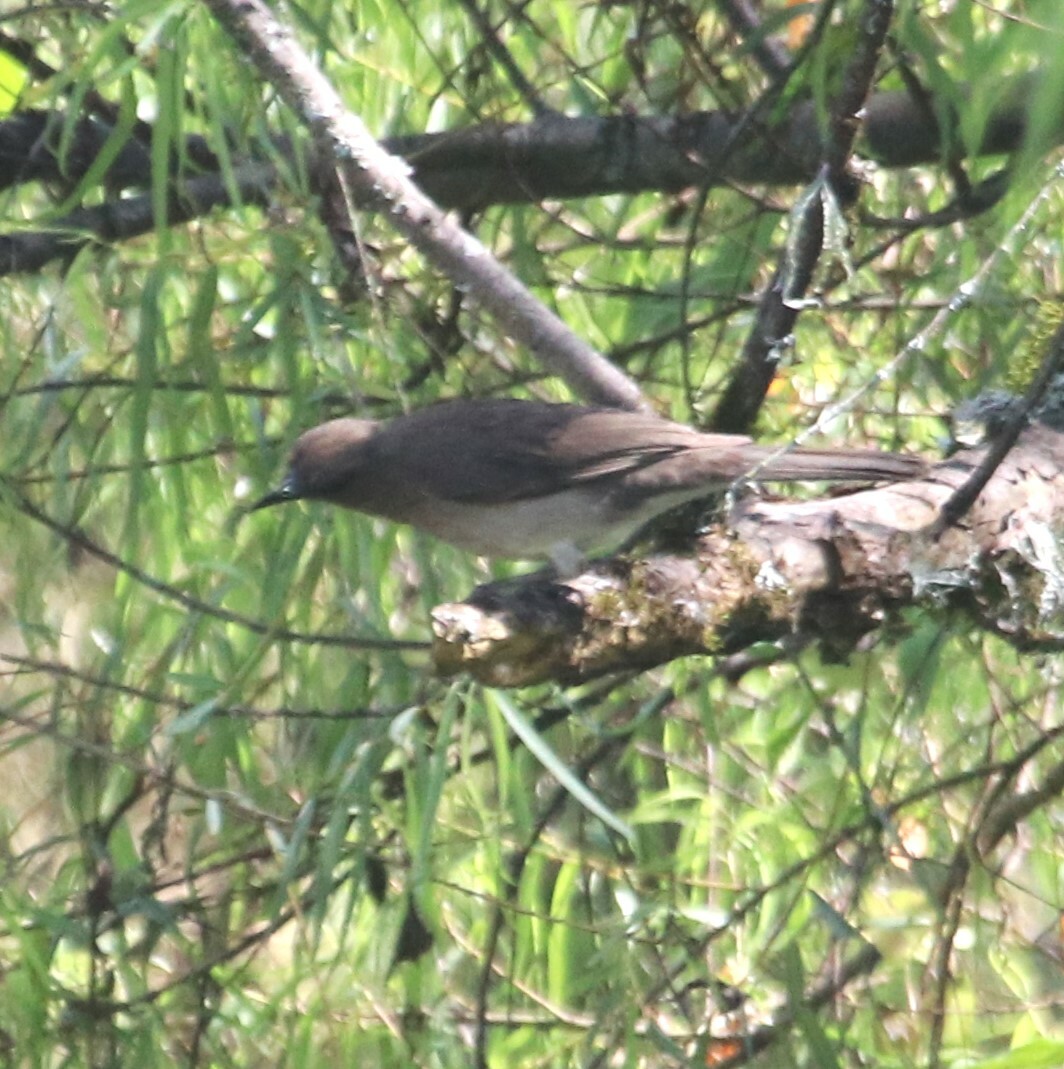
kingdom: Animalia
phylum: Chordata
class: Aves
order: Passeriformes
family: Turdidae
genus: Turdus
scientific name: Turdus ignobilis
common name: Black-billed thrush
